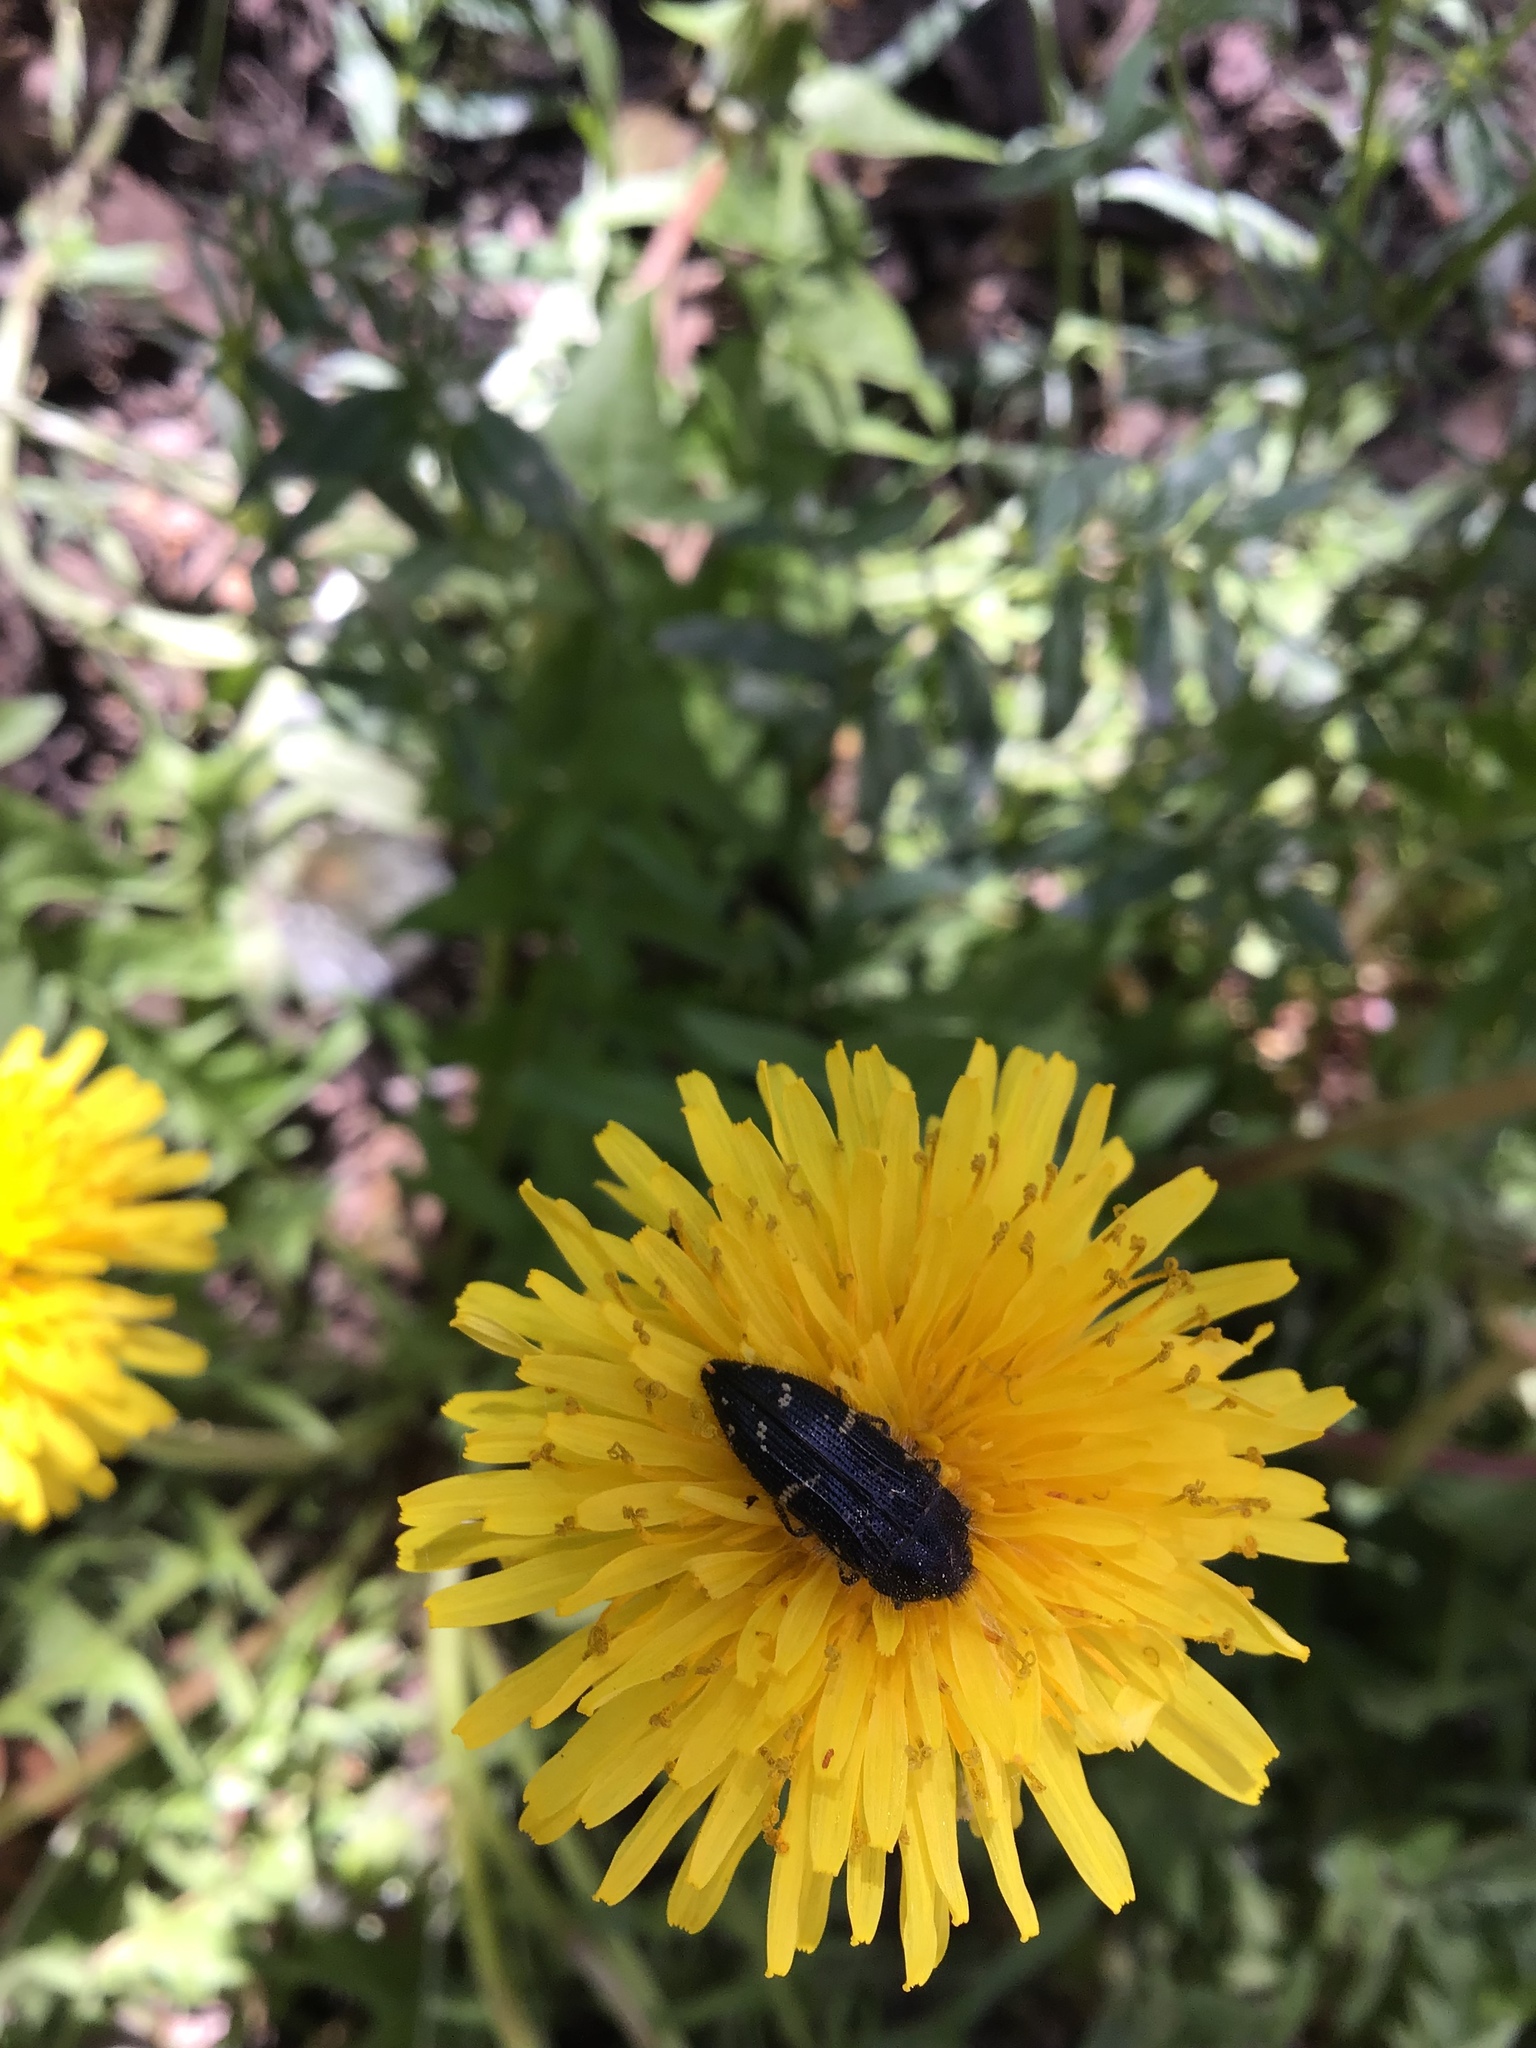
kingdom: Animalia
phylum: Arthropoda
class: Insecta
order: Coleoptera
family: Buprestidae
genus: Acmaeodera
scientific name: Acmaeodera knowltoni
